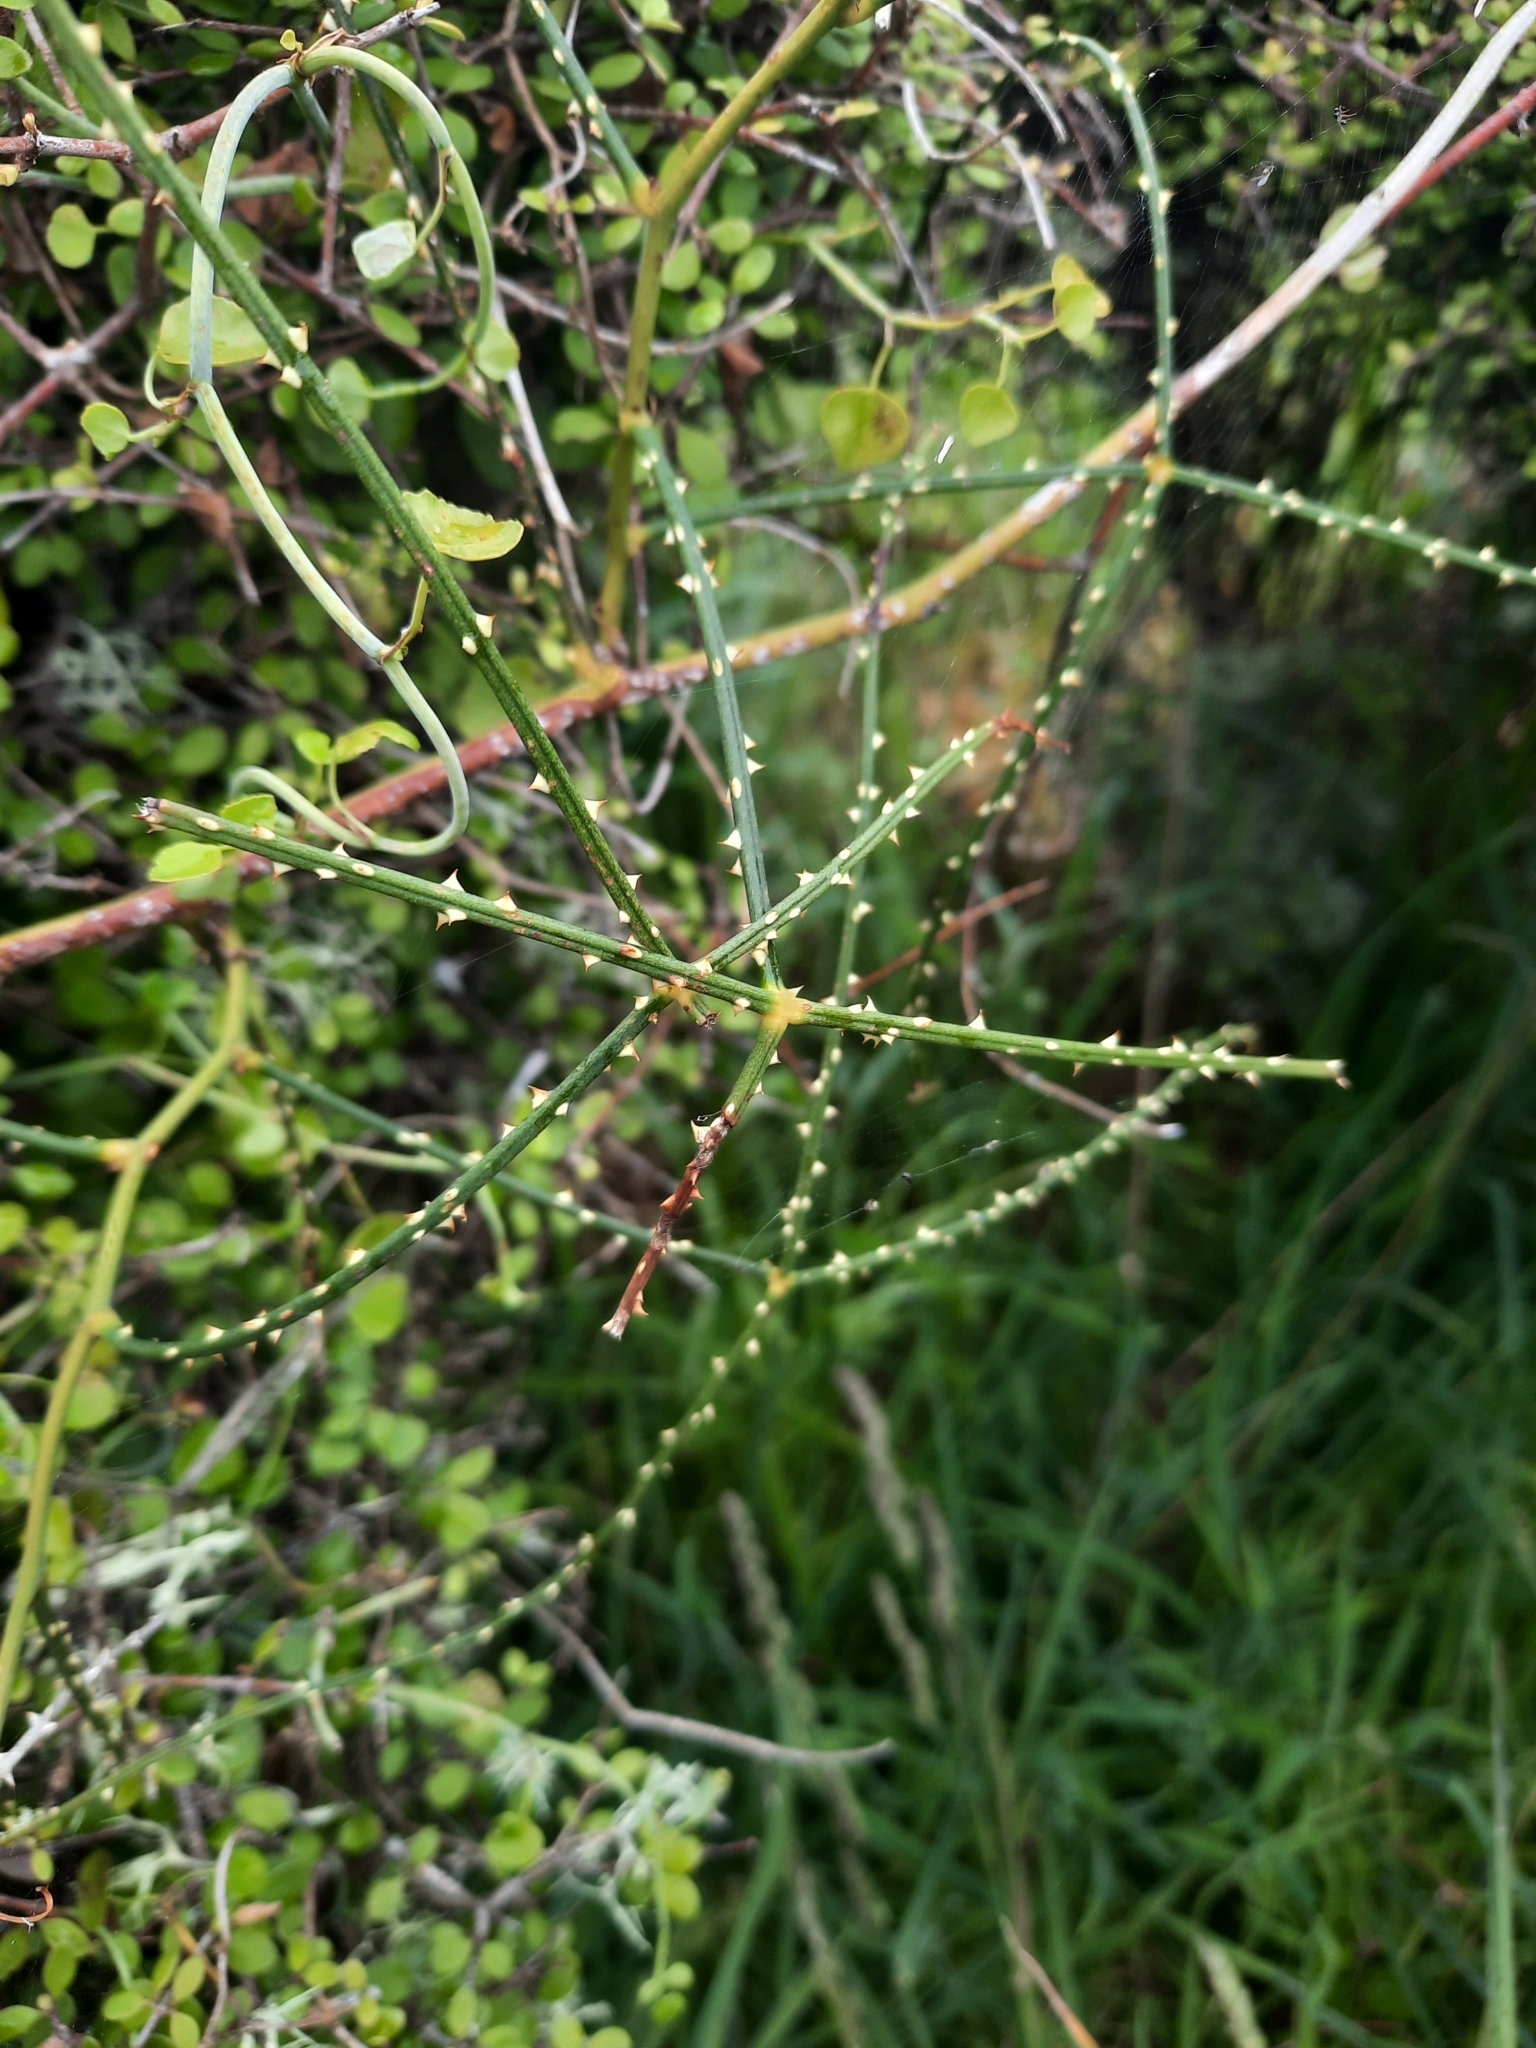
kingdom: Plantae
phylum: Tracheophyta
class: Magnoliopsida
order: Rosales
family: Rosaceae
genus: Rubus
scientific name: Rubus squarrosus
